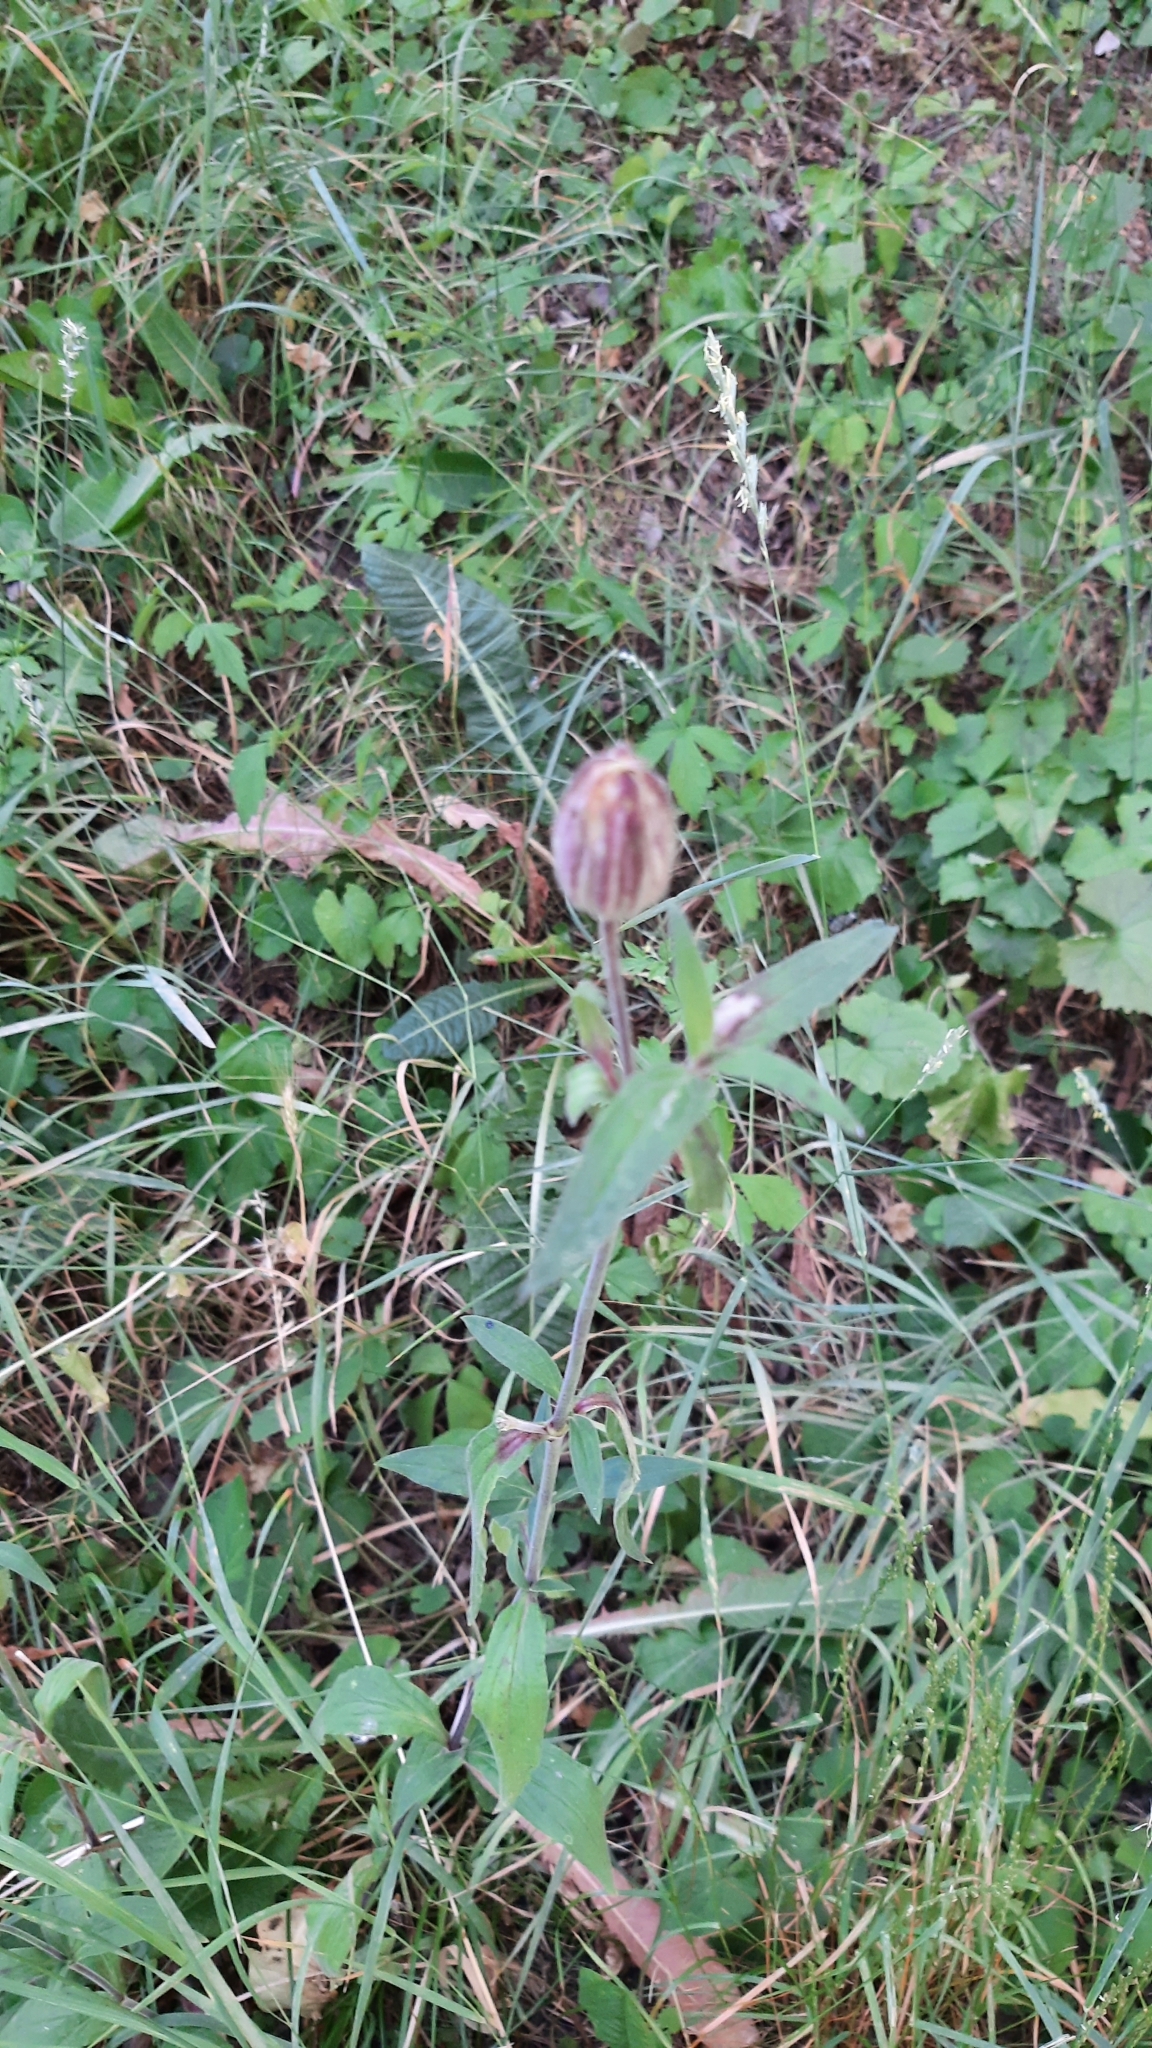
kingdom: Plantae
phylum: Tracheophyta
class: Magnoliopsida
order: Caryophyllales
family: Caryophyllaceae
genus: Silene
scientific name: Silene latifolia
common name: White campion
